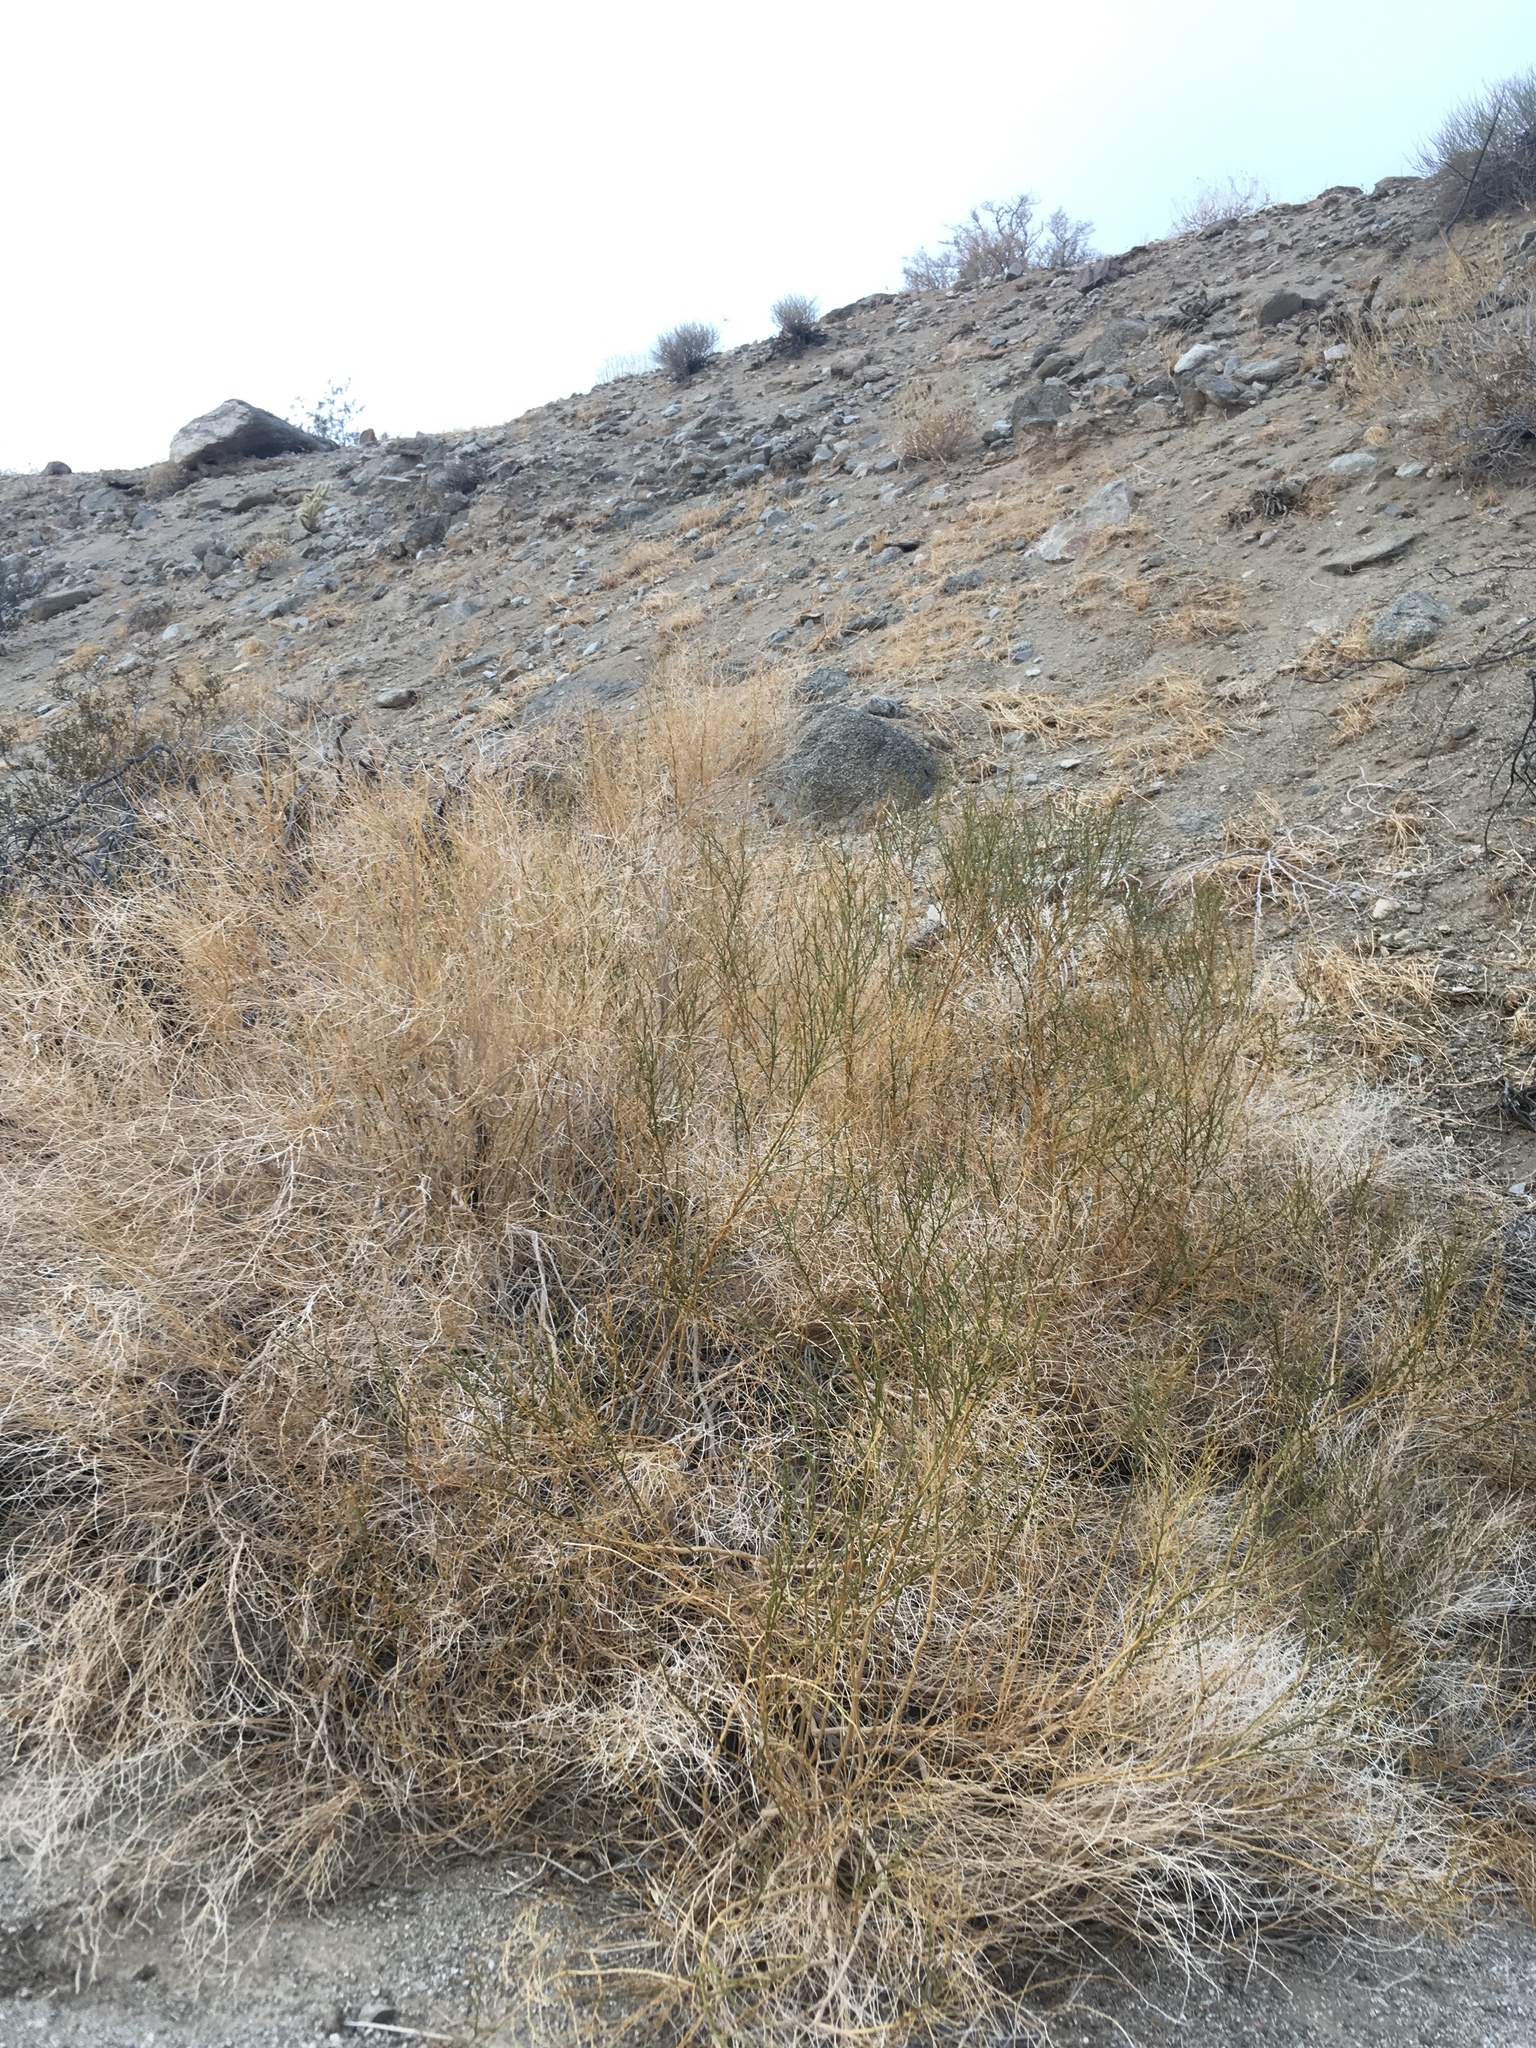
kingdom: Plantae
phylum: Tracheophyta
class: Magnoliopsida
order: Asterales
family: Asteraceae
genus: Ambrosia
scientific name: Ambrosia salsola
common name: Burrobrush
